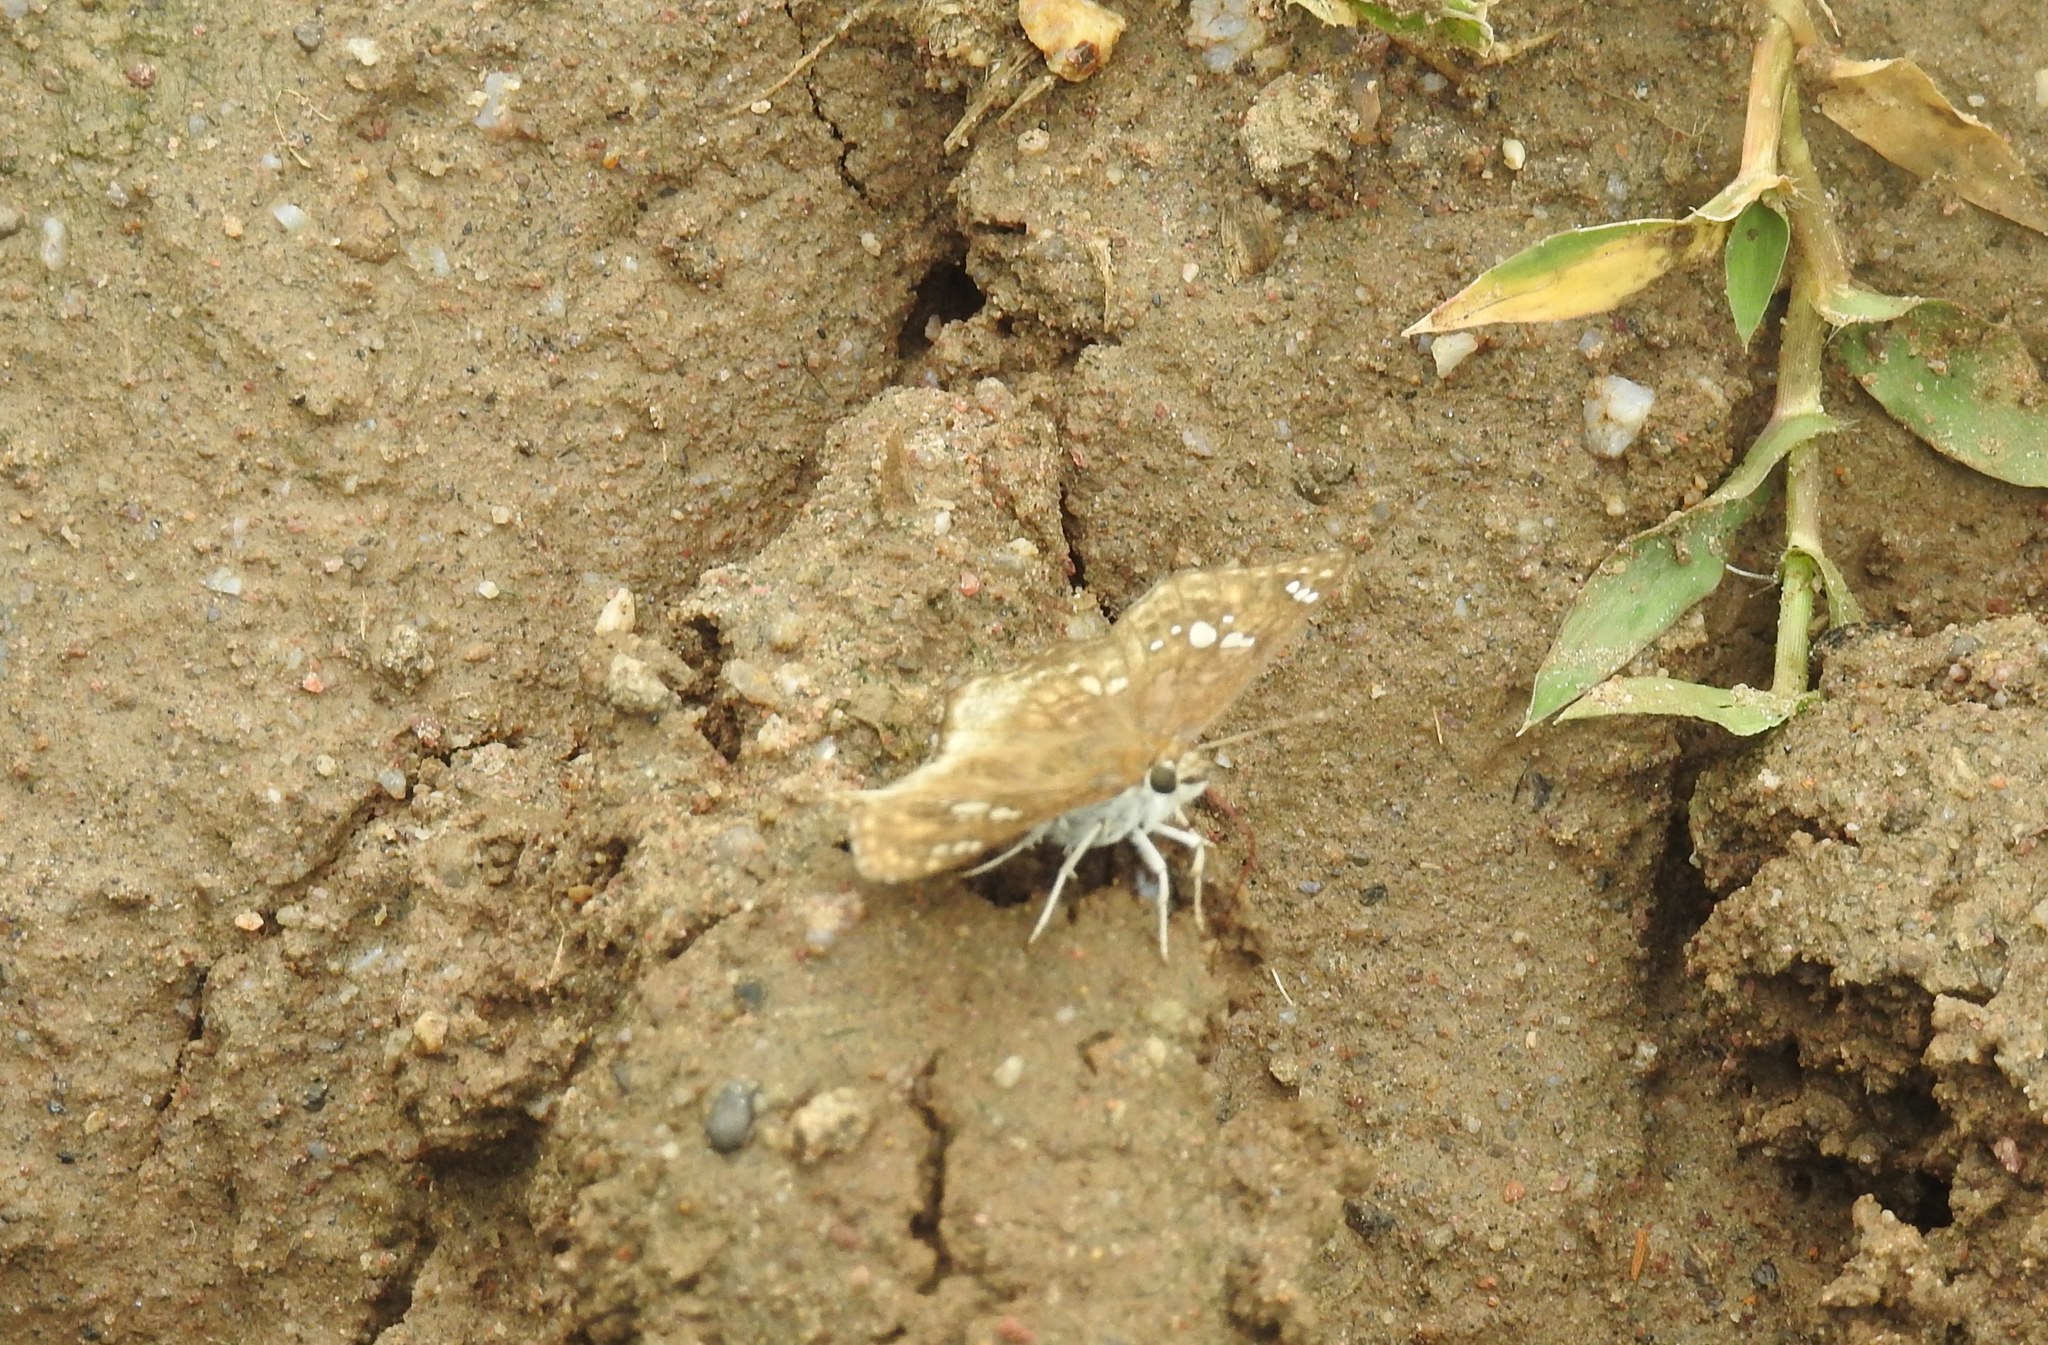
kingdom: Animalia
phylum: Arthropoda
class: Insecta
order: Lepidoptera
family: Hesperiidae
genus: Caprona
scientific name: Caprona ransonnettii
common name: Golden angle
